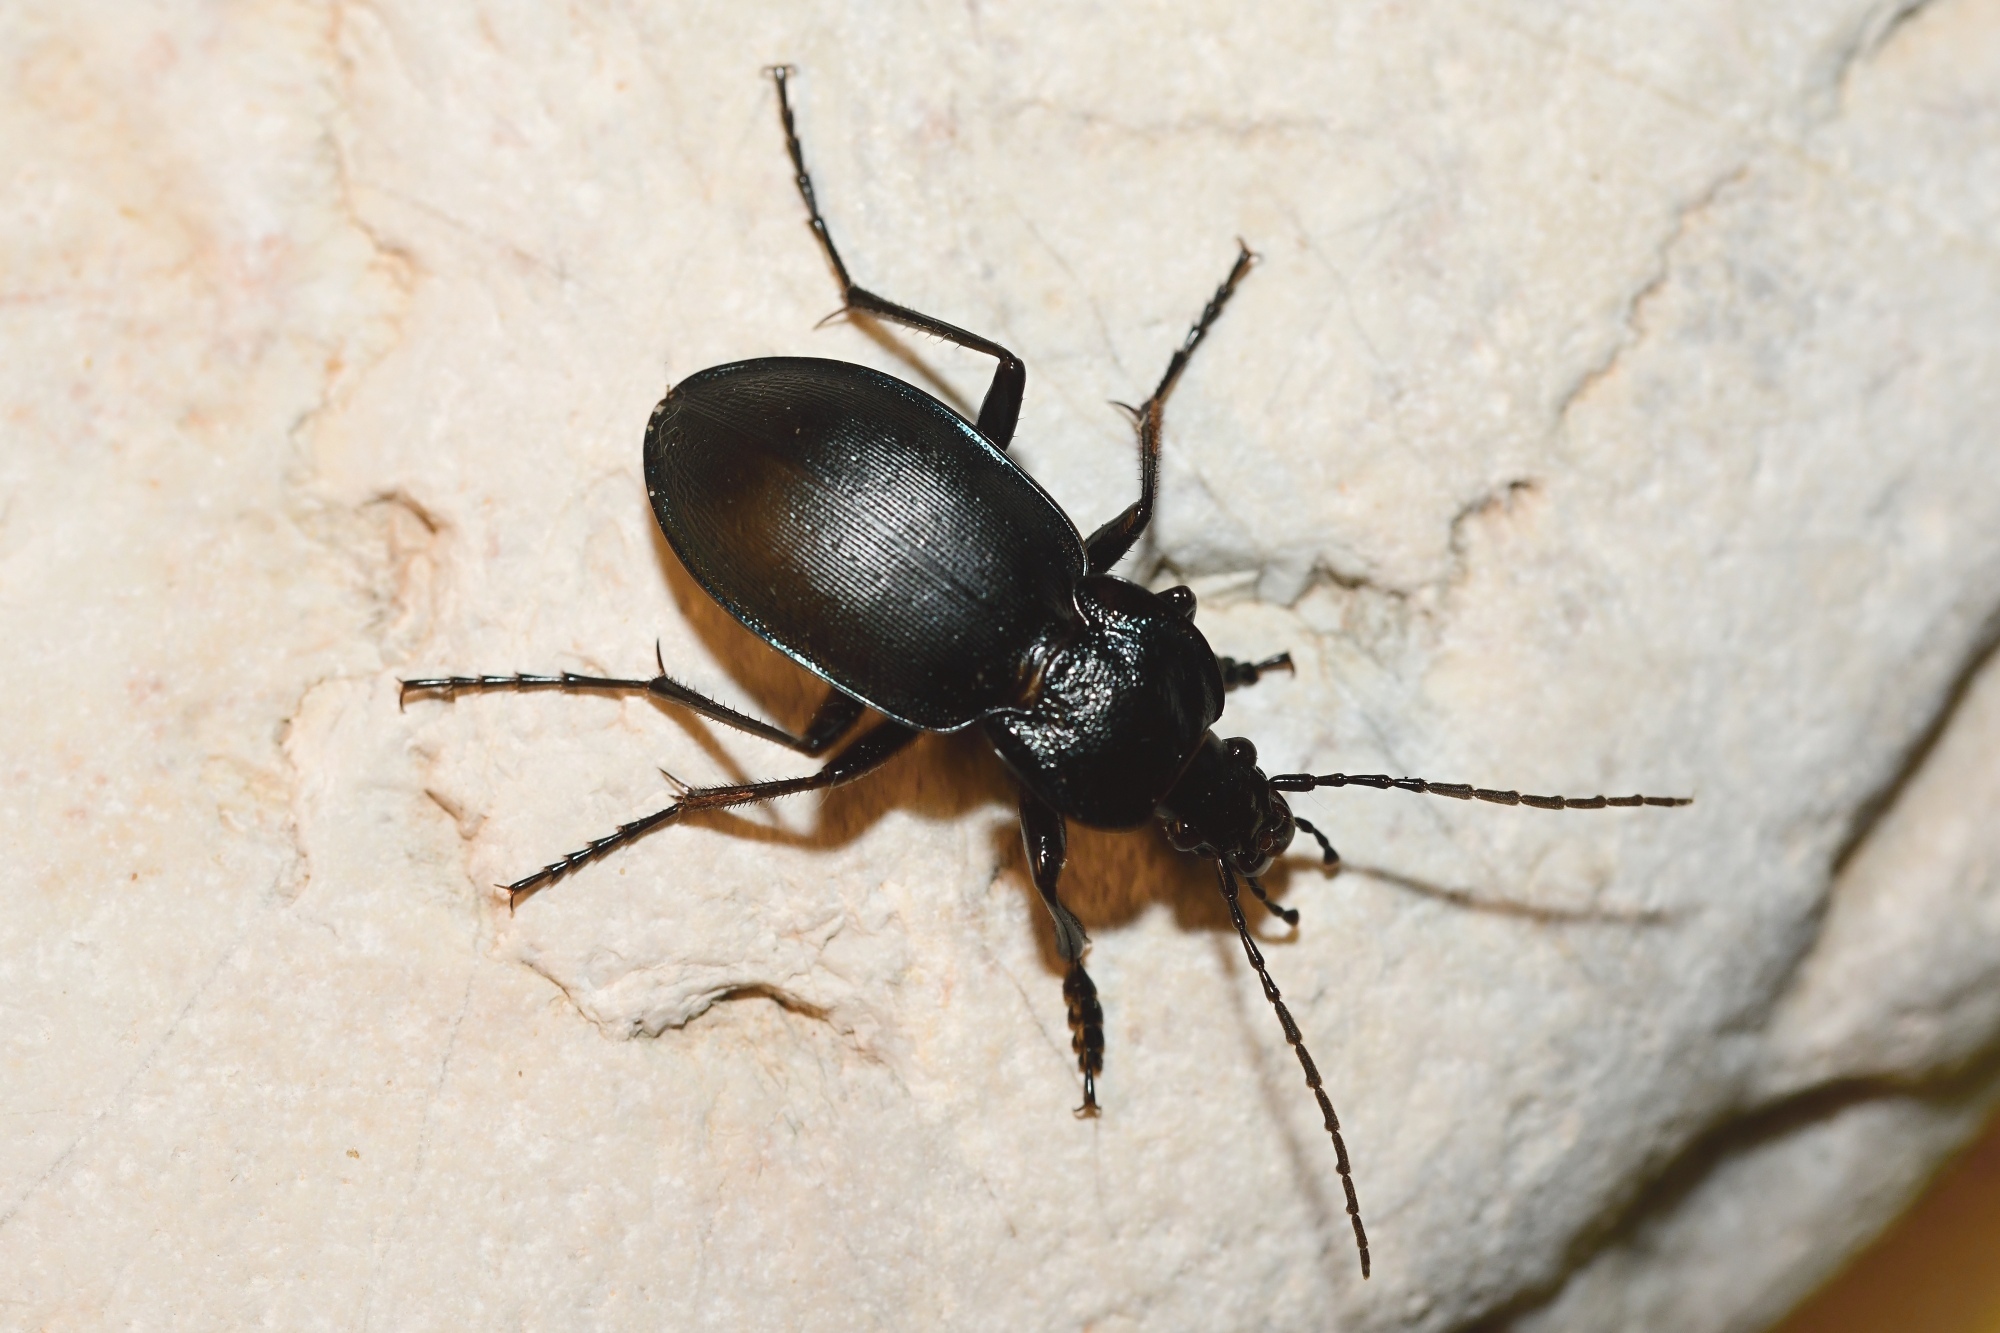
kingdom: Animalia
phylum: Arthropoda
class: Insecta
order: Coleoptera
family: Carabidae
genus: Carabus
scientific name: Carabus preslii
